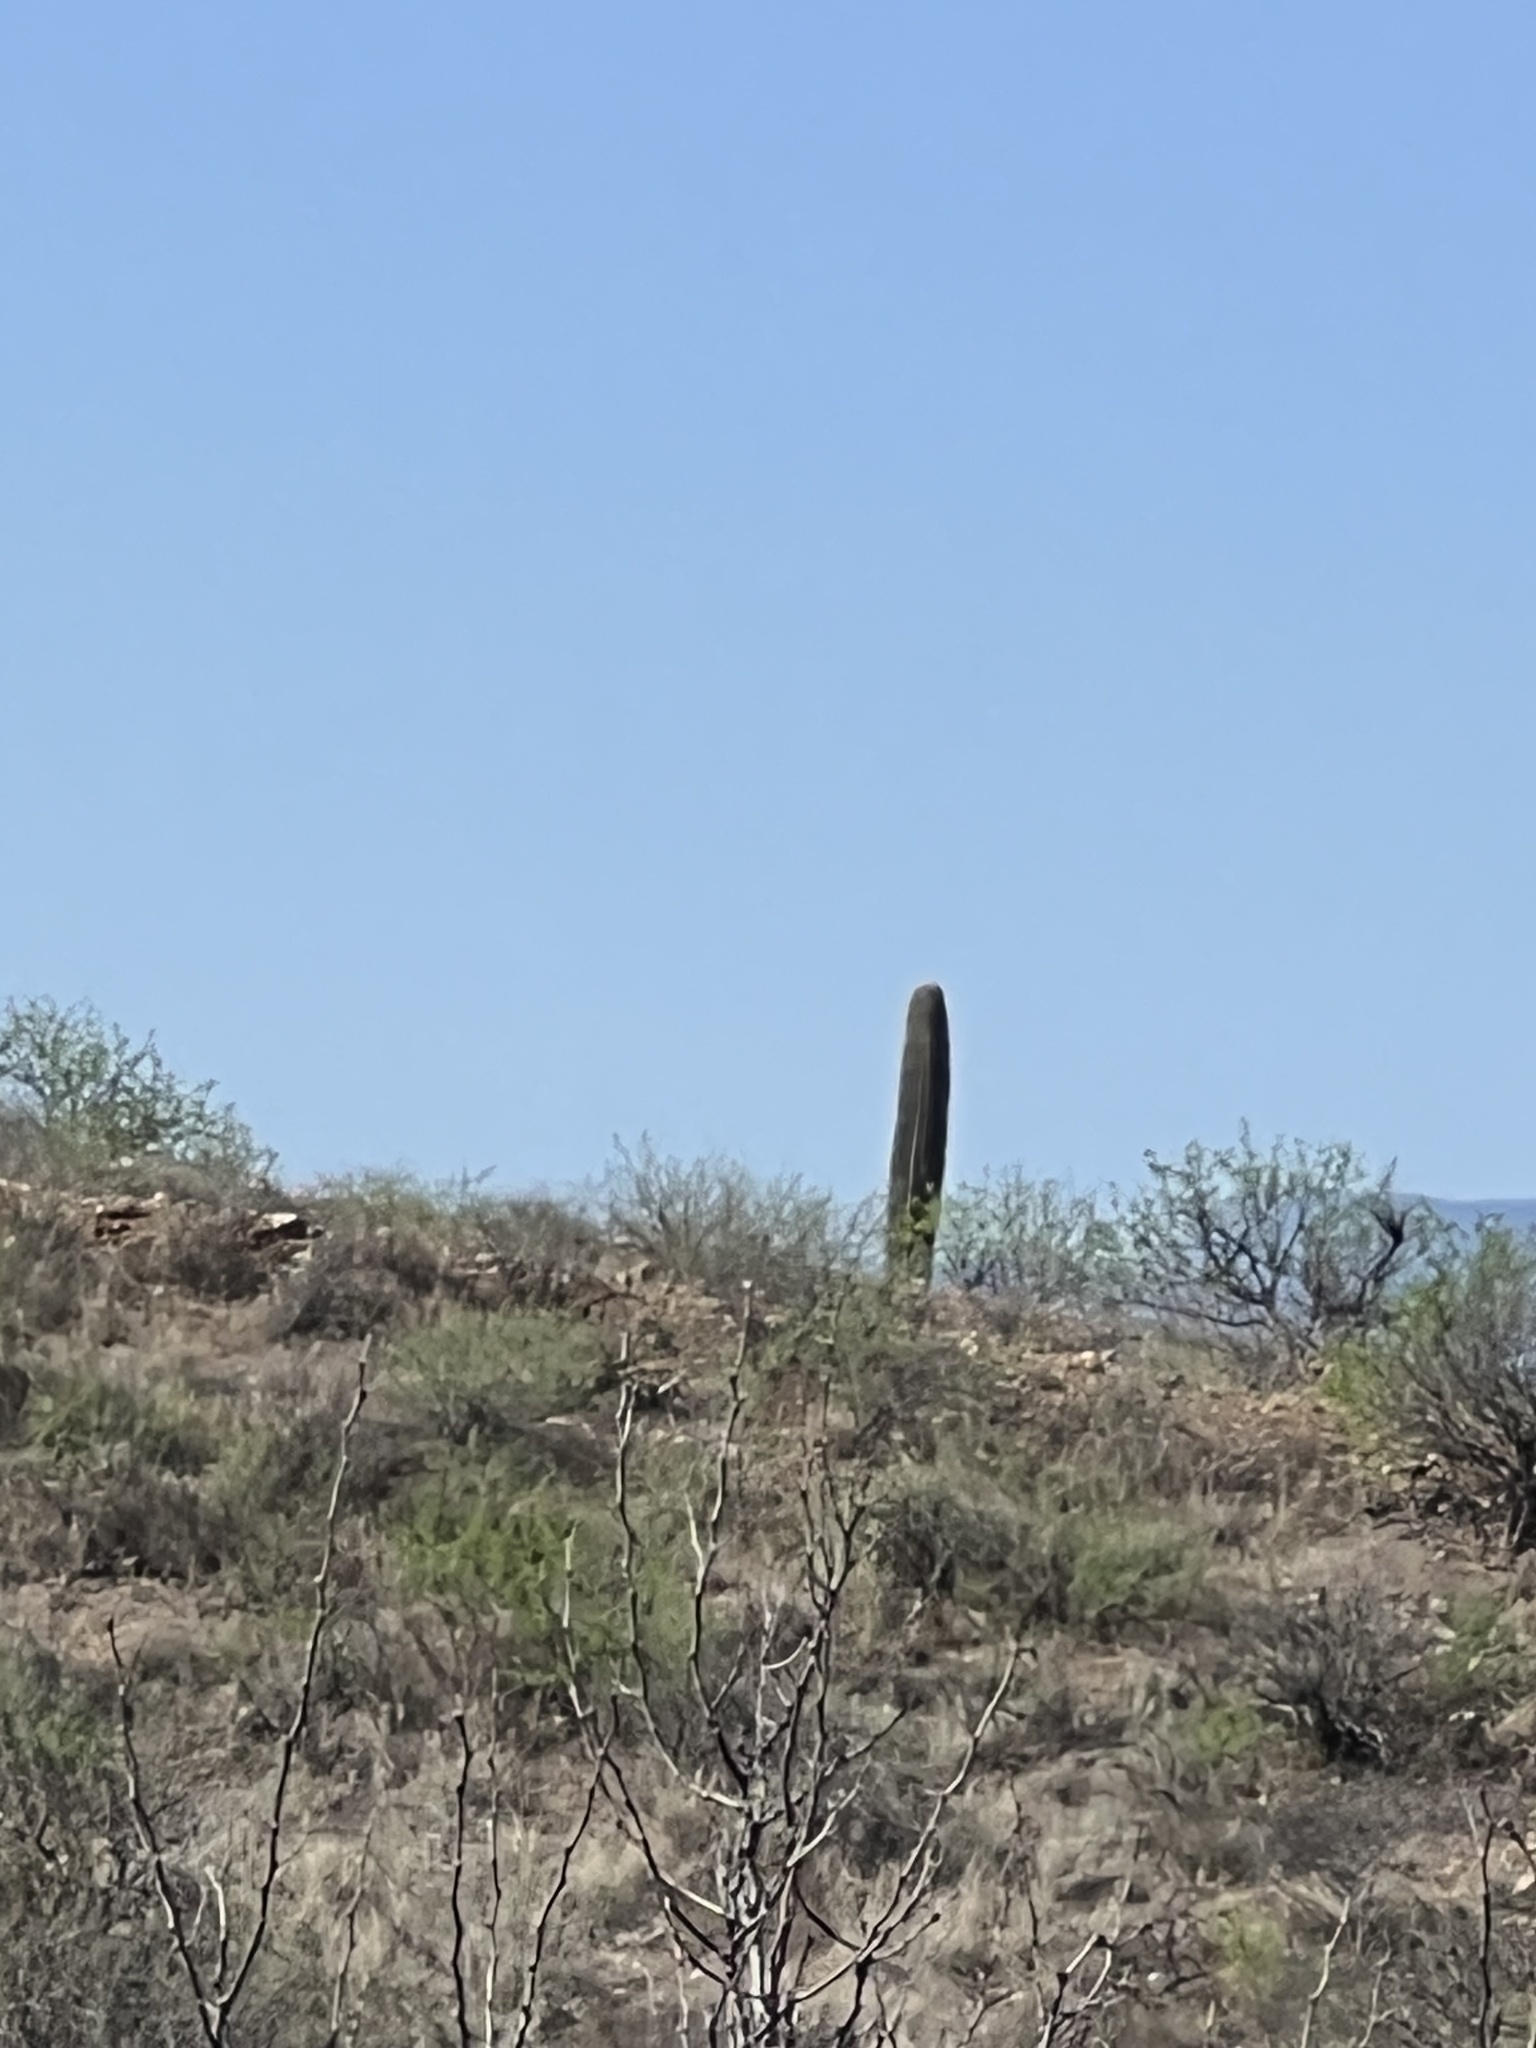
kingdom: Plantae
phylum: Tracheophyta
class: Magnoliopsida
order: Caryophyllales
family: Cactaceae
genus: Carnegiea
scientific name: Carnegiea gigantea
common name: Saguaro
